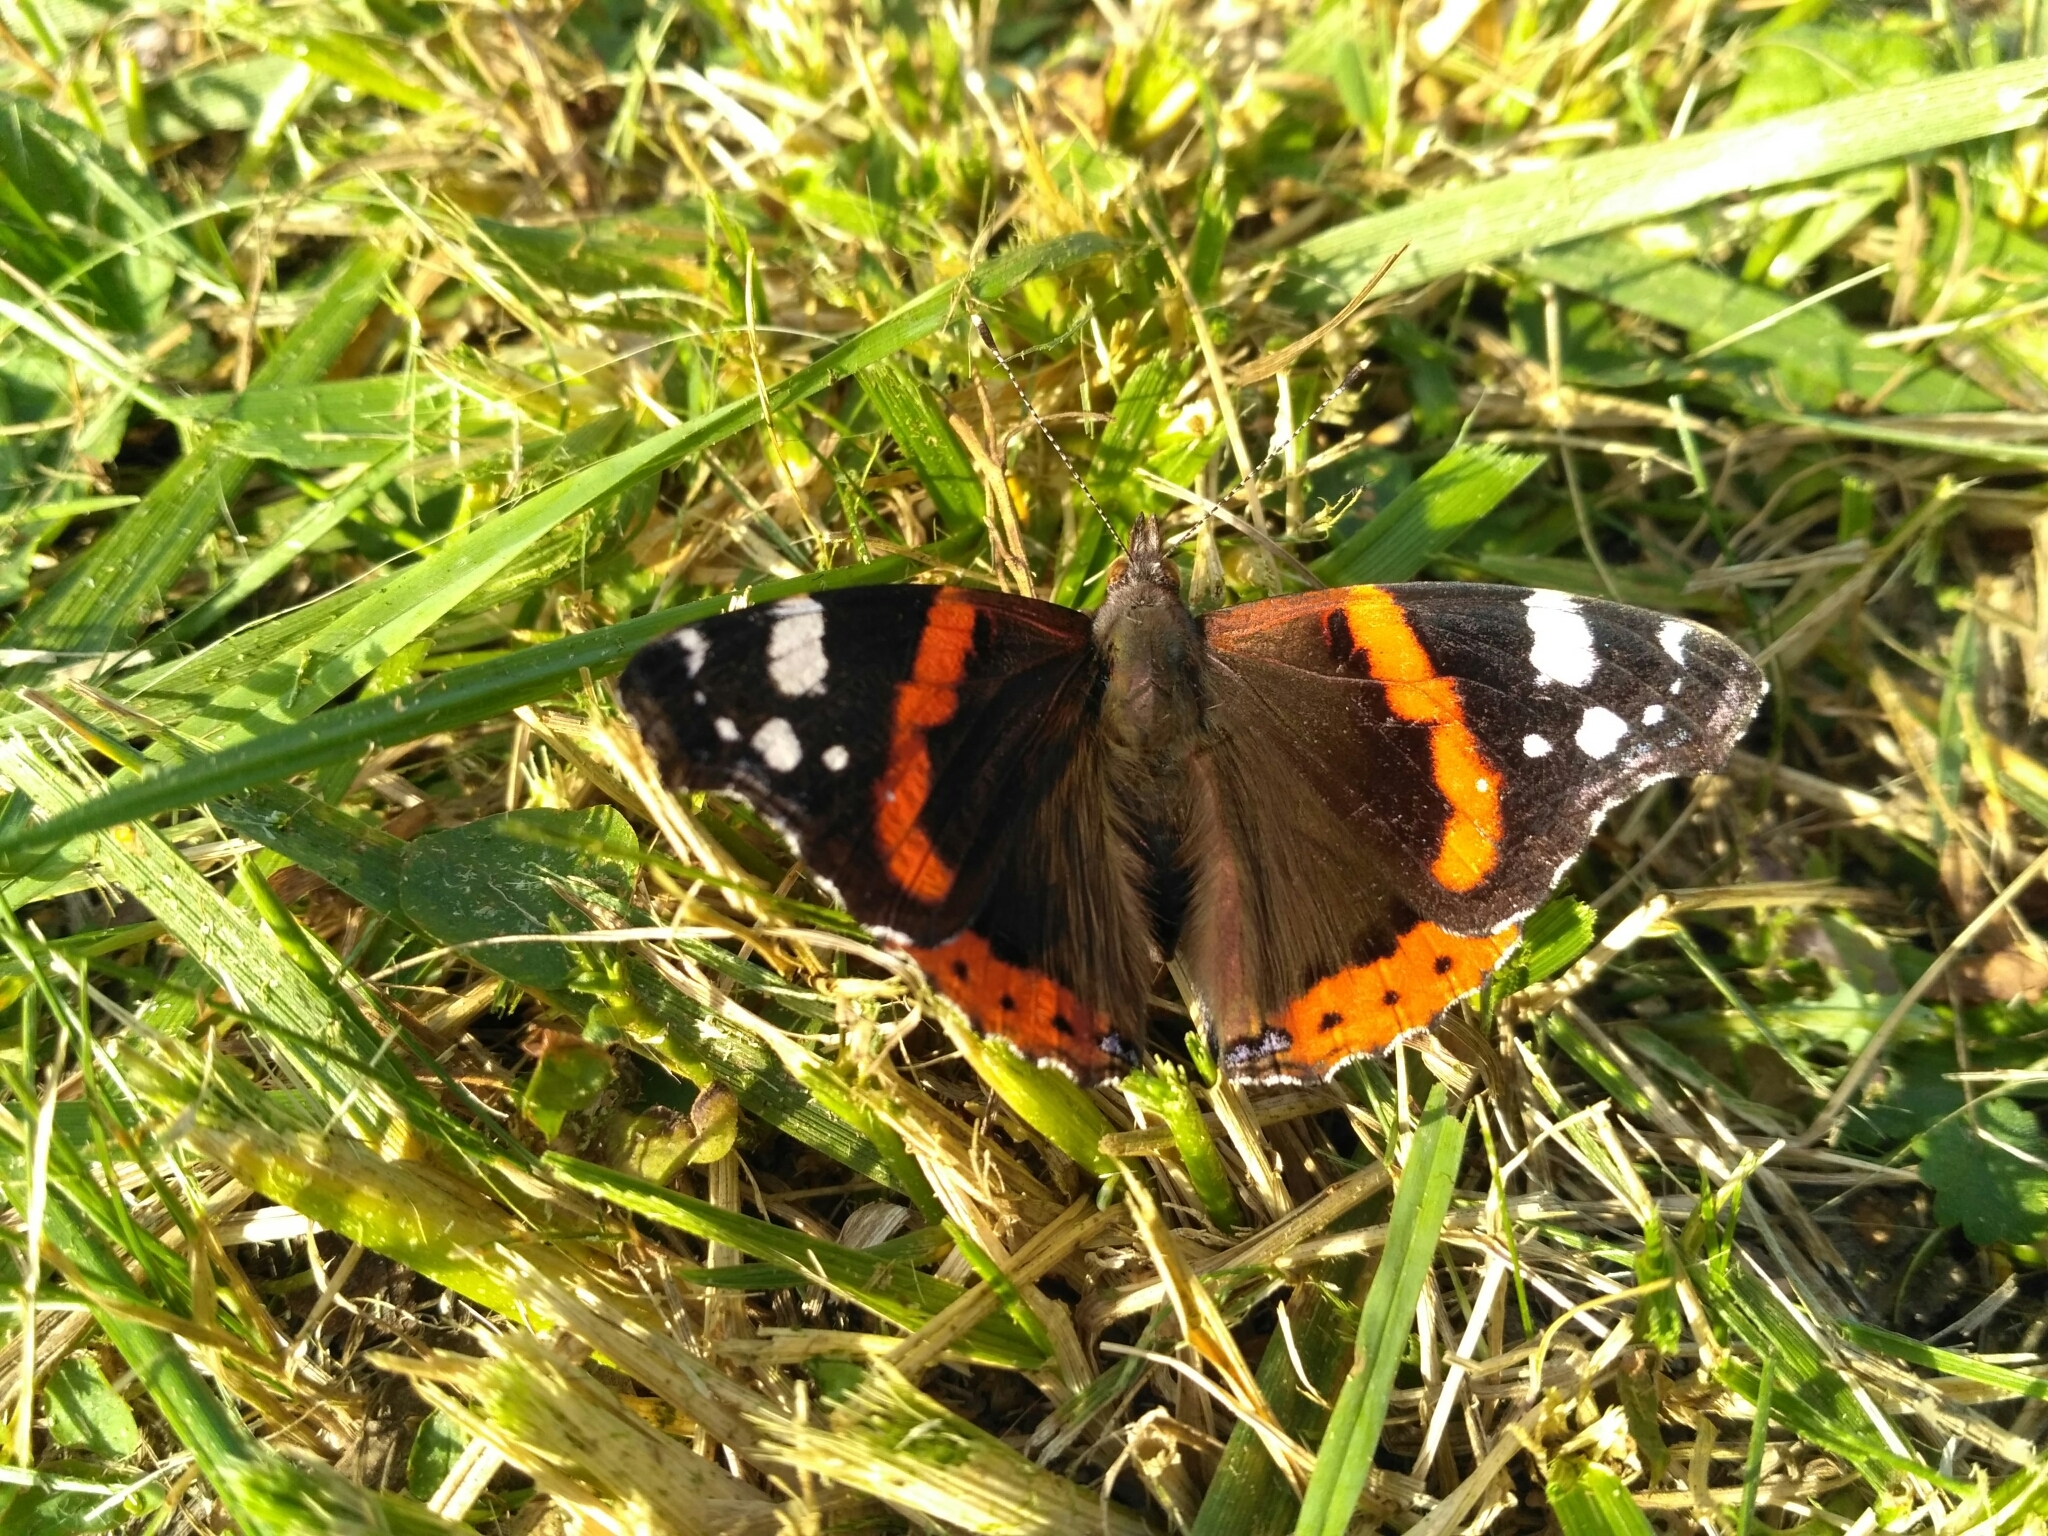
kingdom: Animalia
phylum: Arthropoda
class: Insecta
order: Lepidoptera
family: Nymphalidae
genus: Vanessa
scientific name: Vanessa atalanta
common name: Red admiral
